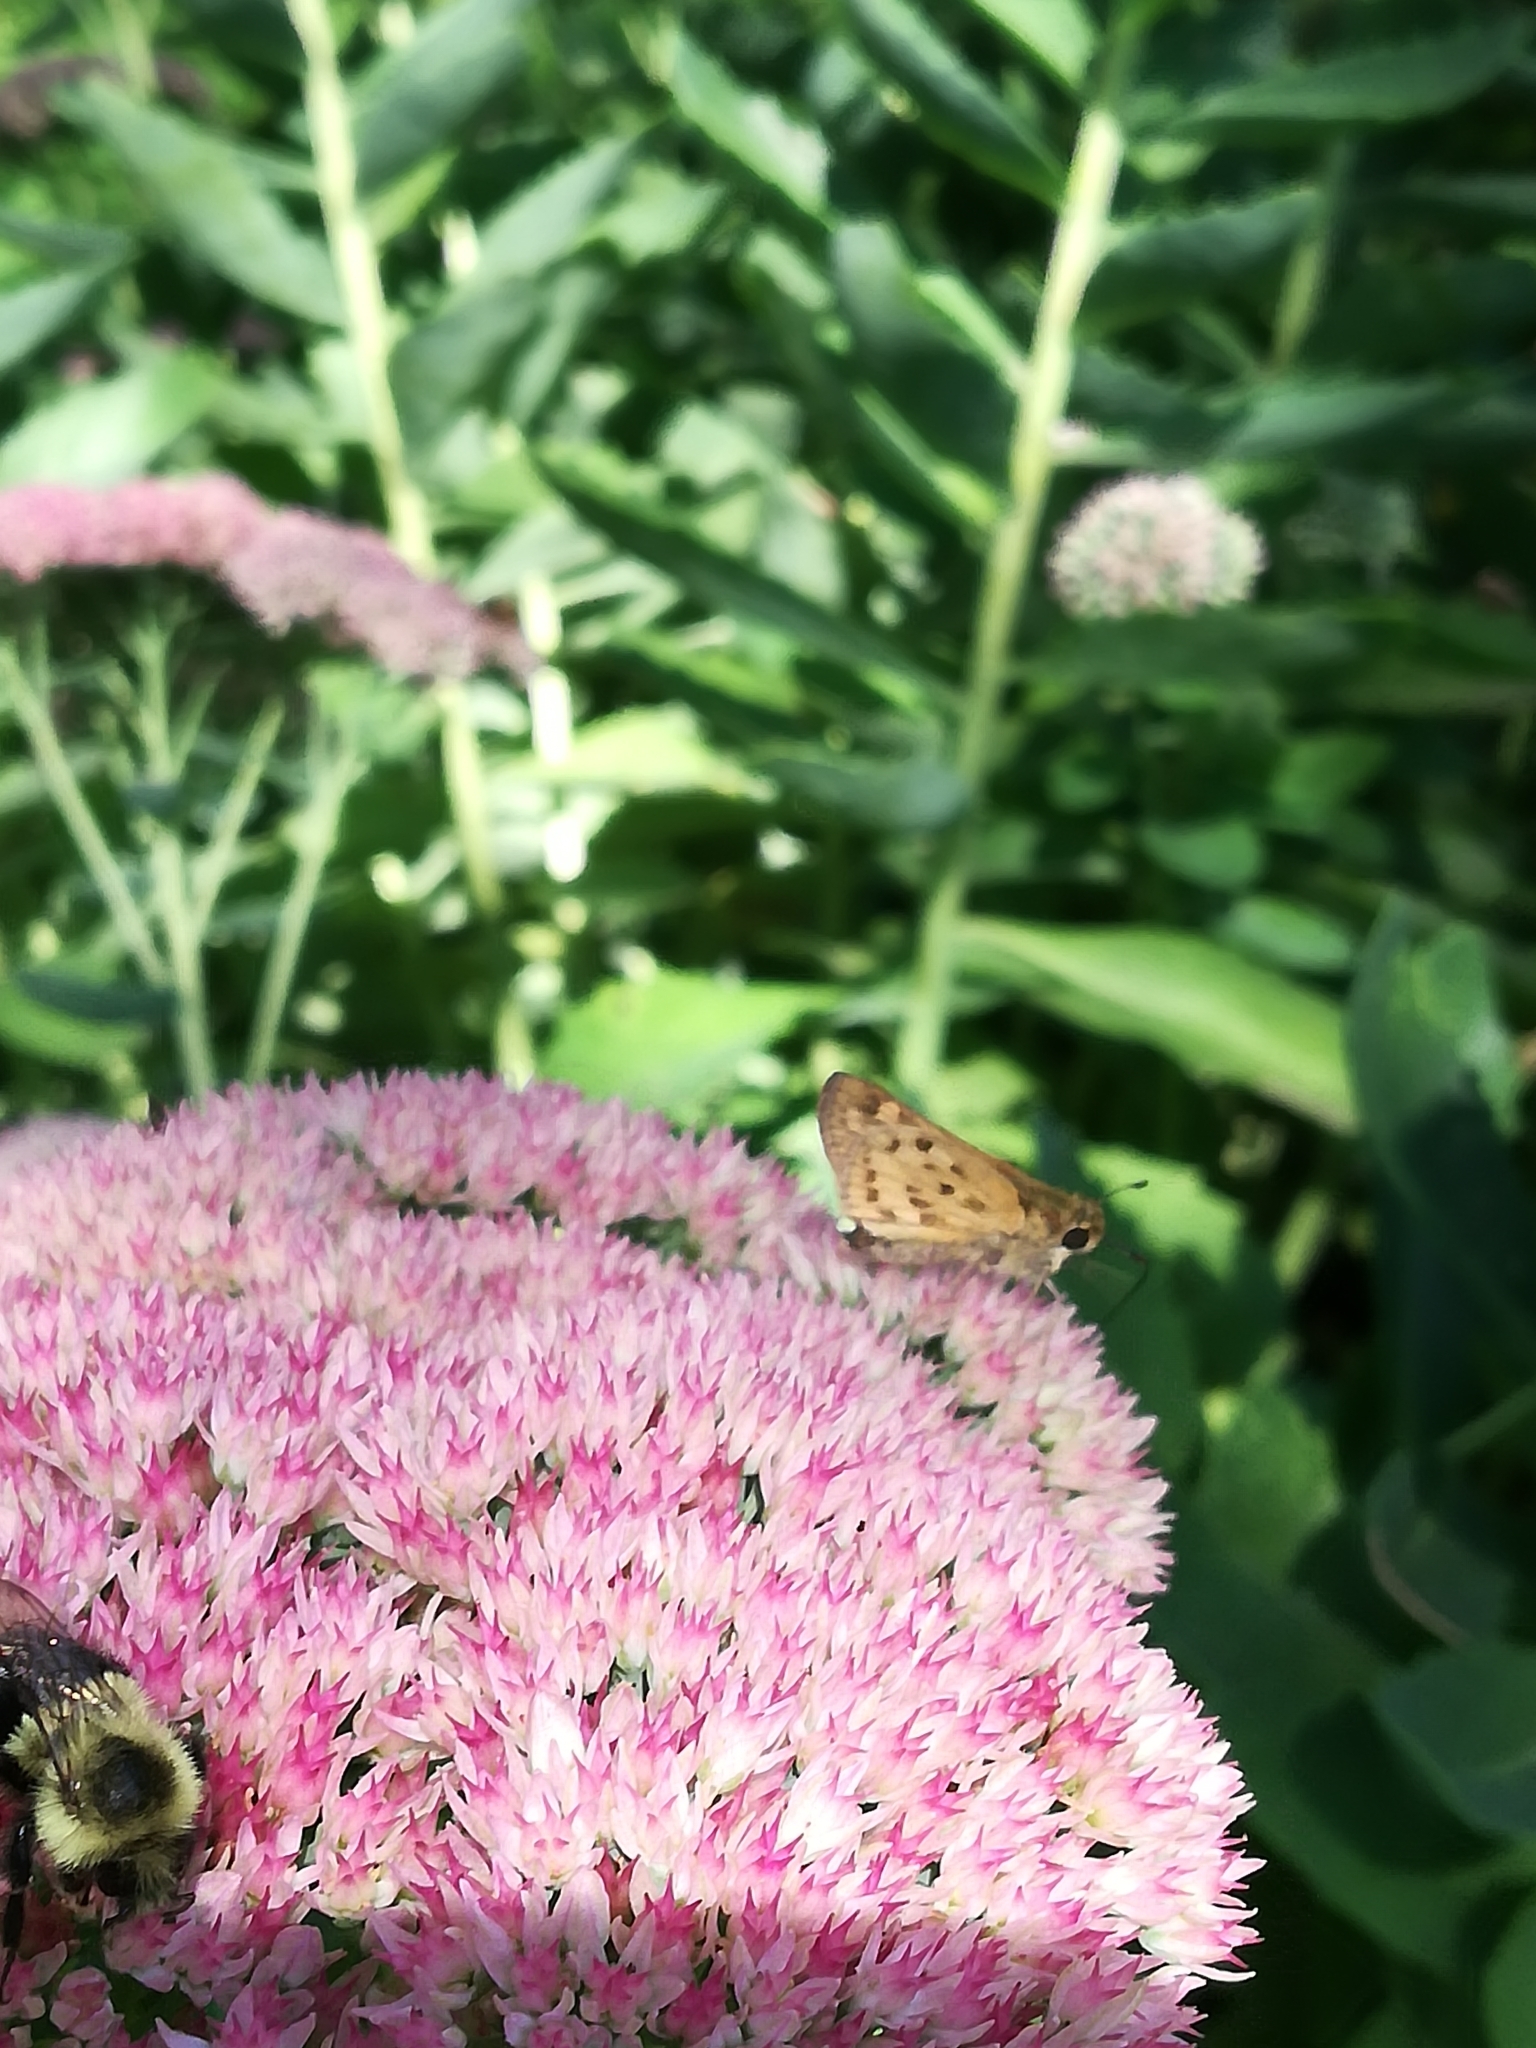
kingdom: Animalia
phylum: Arthropoda
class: Insecta
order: Lepidoptera
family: Hesperiidae
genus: Hylephila
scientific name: Hylephila phyleus
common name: Fiery skipper
